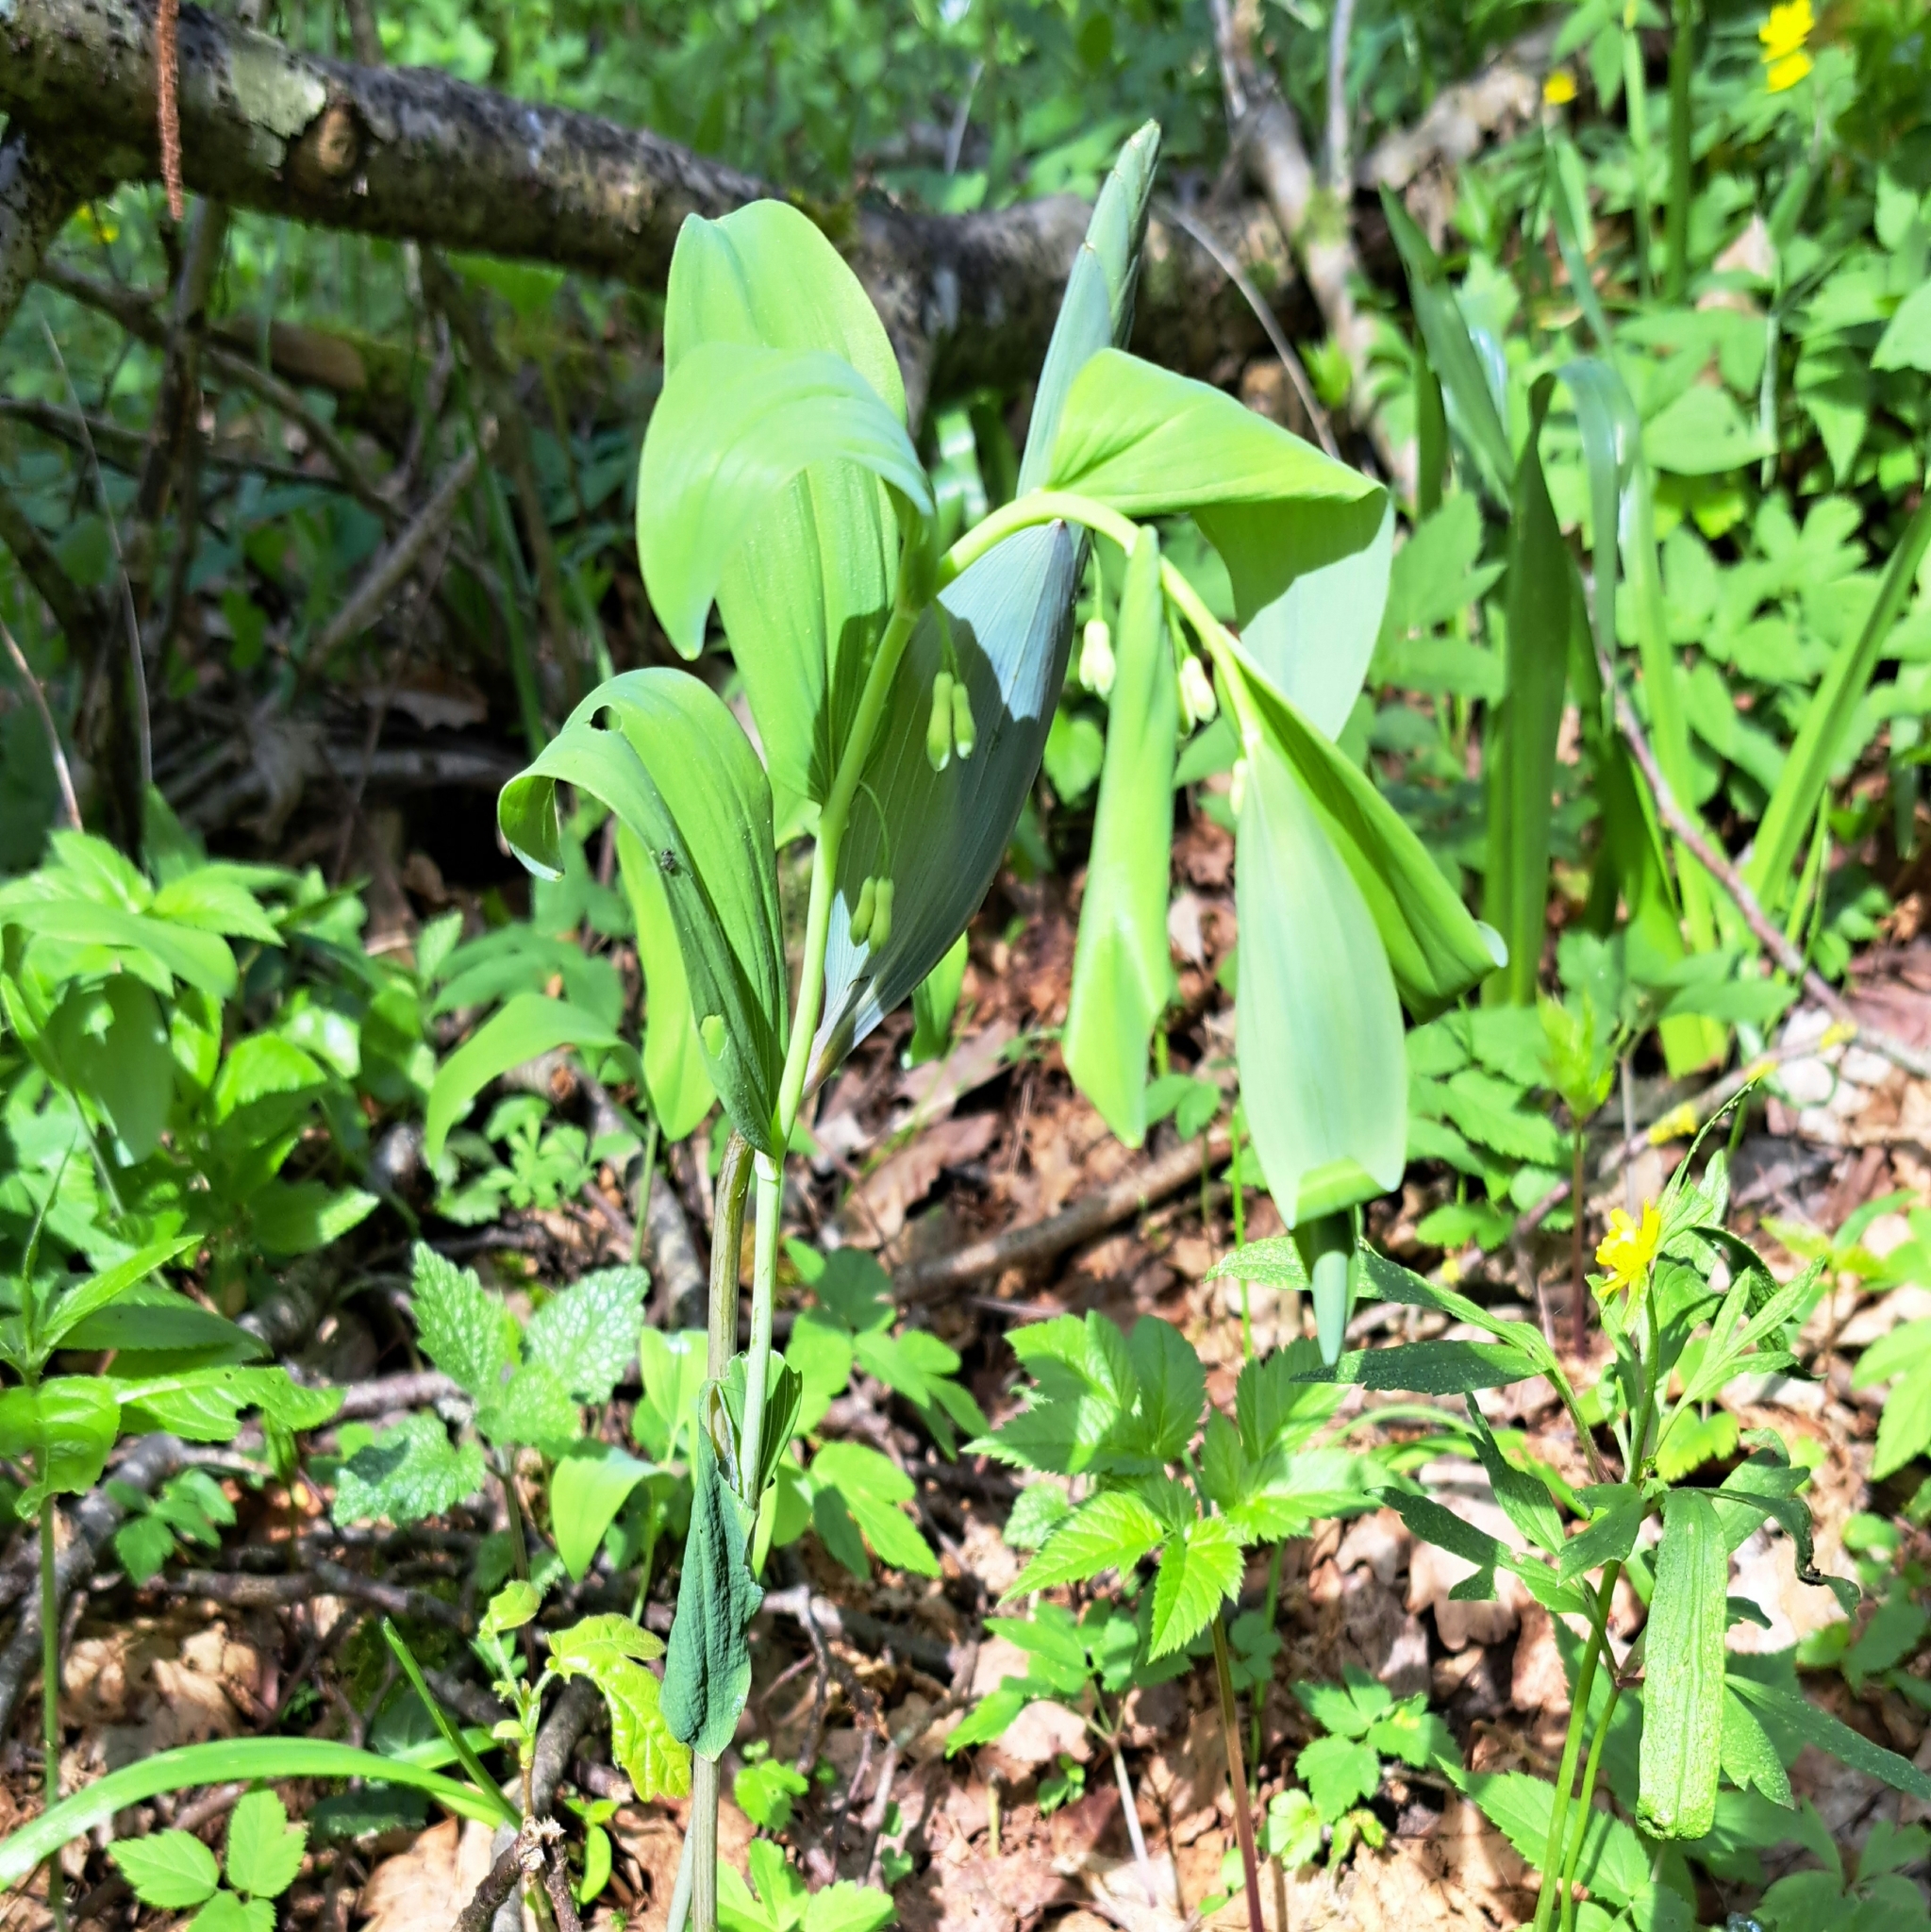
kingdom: Plantae
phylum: Tracheophyta
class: Liliopsida
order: Asparagales
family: Asparagaceae
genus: Polygonatum
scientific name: Polygonatum multiflorum
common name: Solomon's-seal
